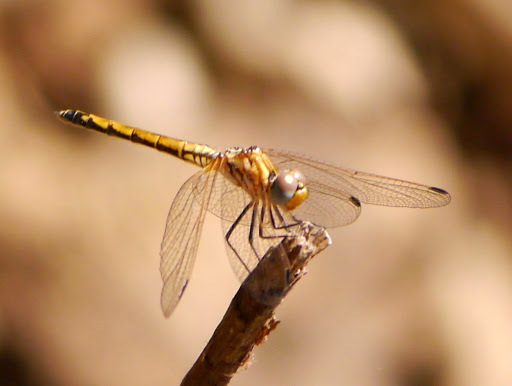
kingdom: Animalia
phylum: Arthropoda
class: Insecta
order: Odonata
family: Libellulidae
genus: Trithemis
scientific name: Trithemis arteriosa
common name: Red-veined dropwing
